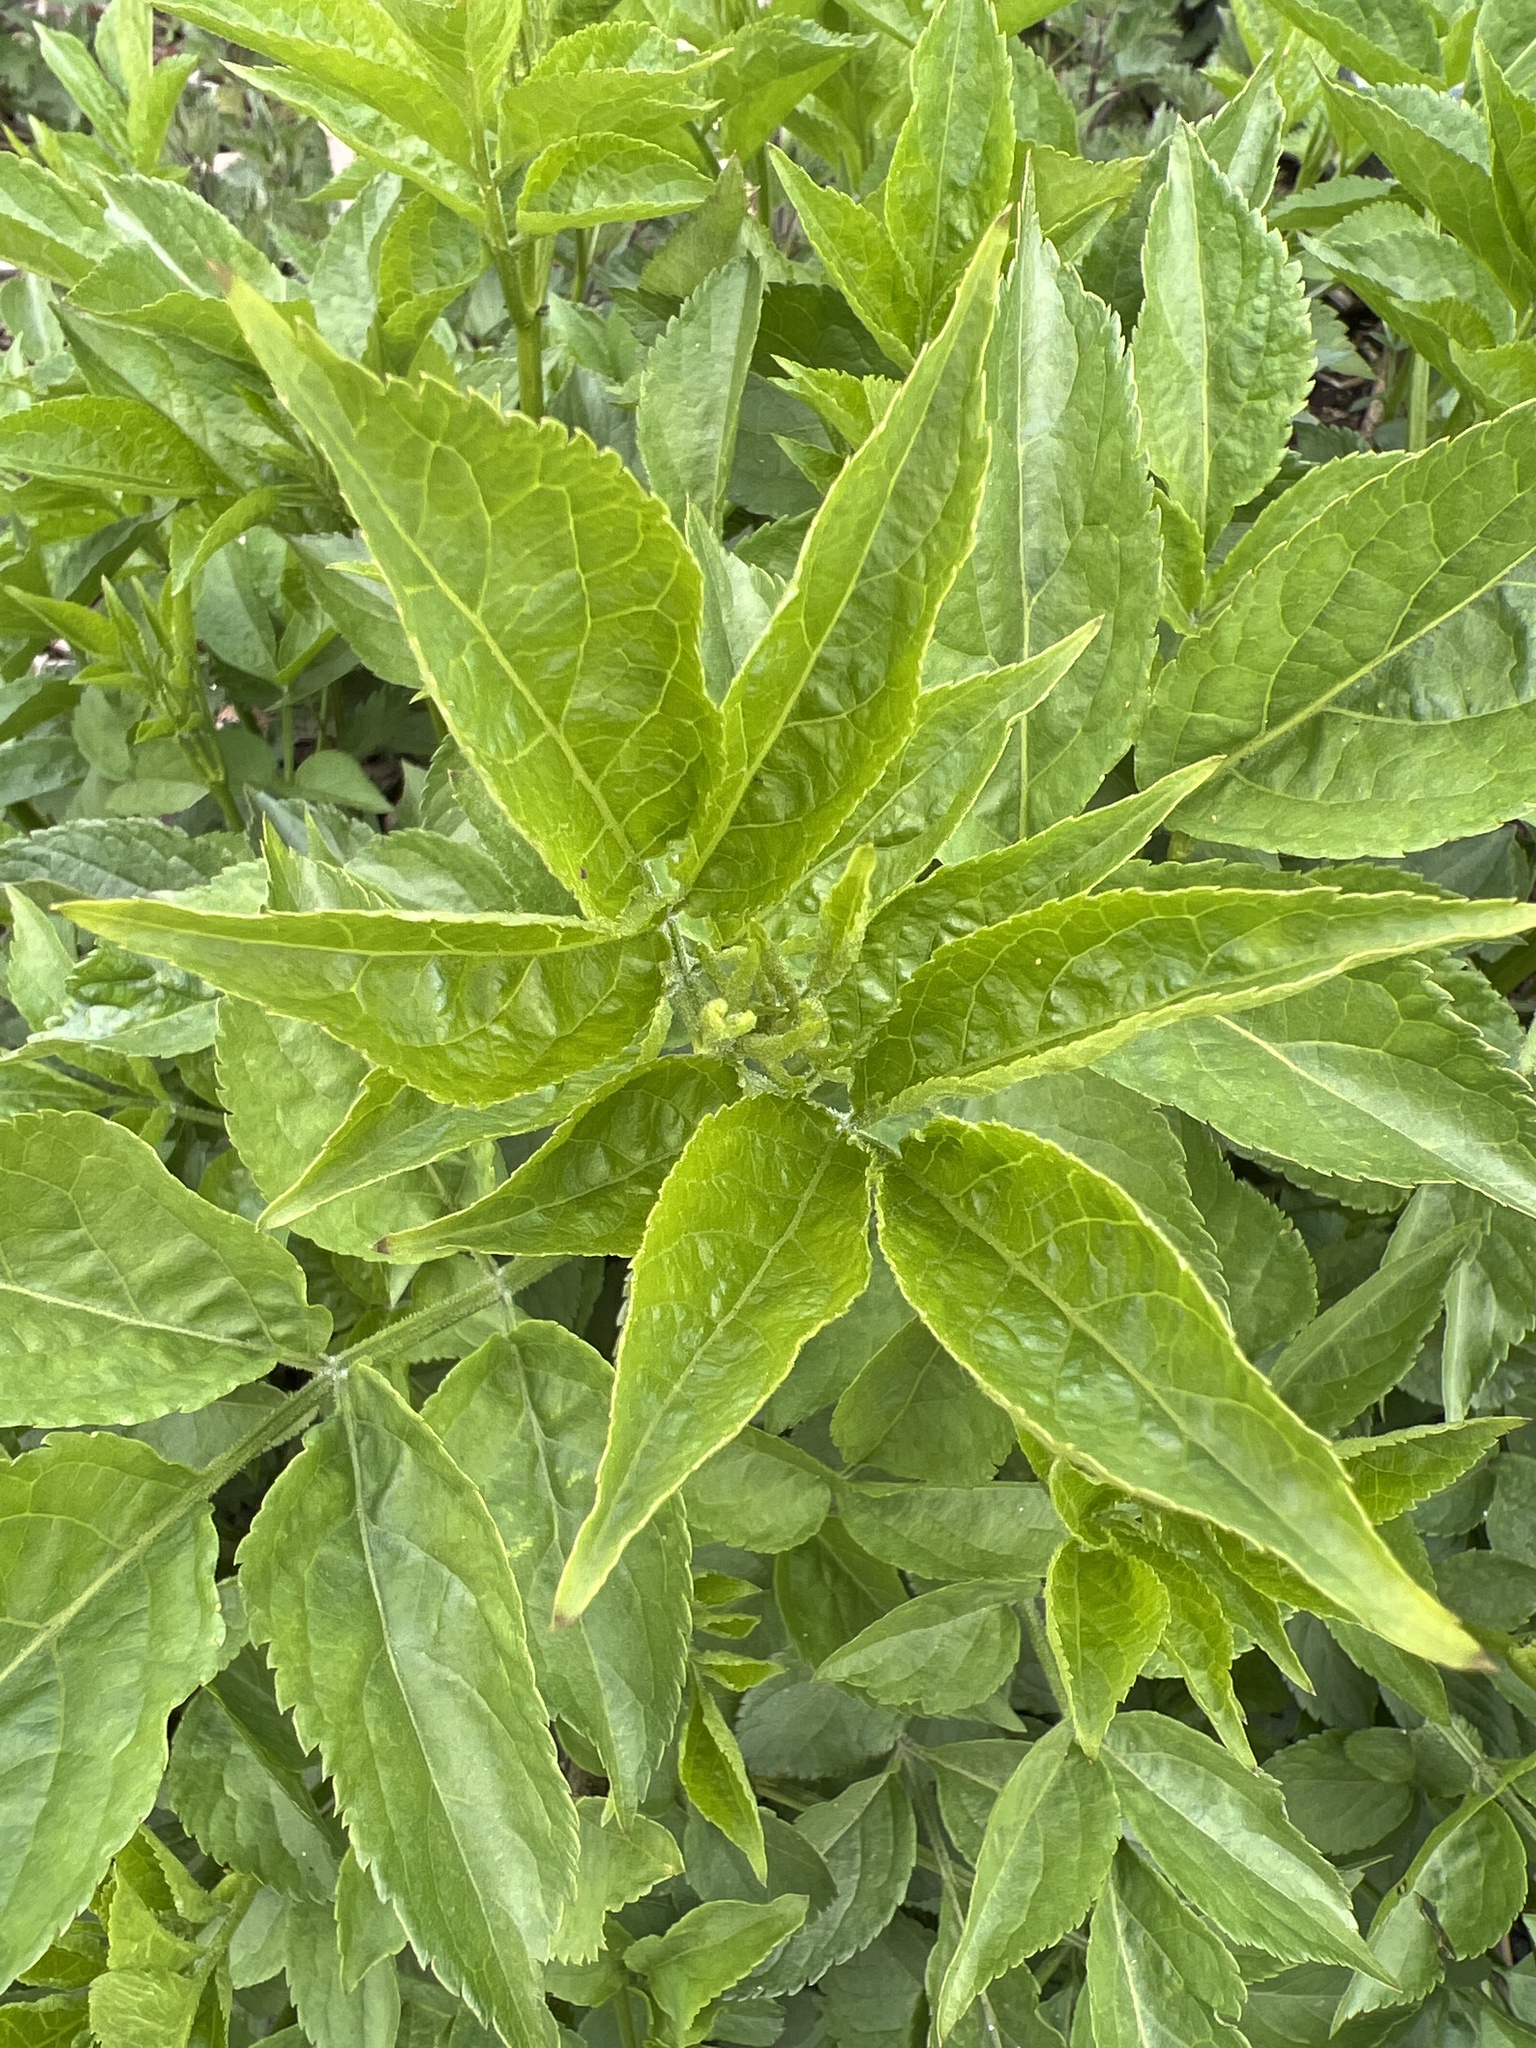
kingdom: Plantae
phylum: Tracheophyta
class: Magnoliopsida
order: Dipsacales
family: Viburnaceae
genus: Sambucus
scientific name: Sambucus nigra
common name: Elder
